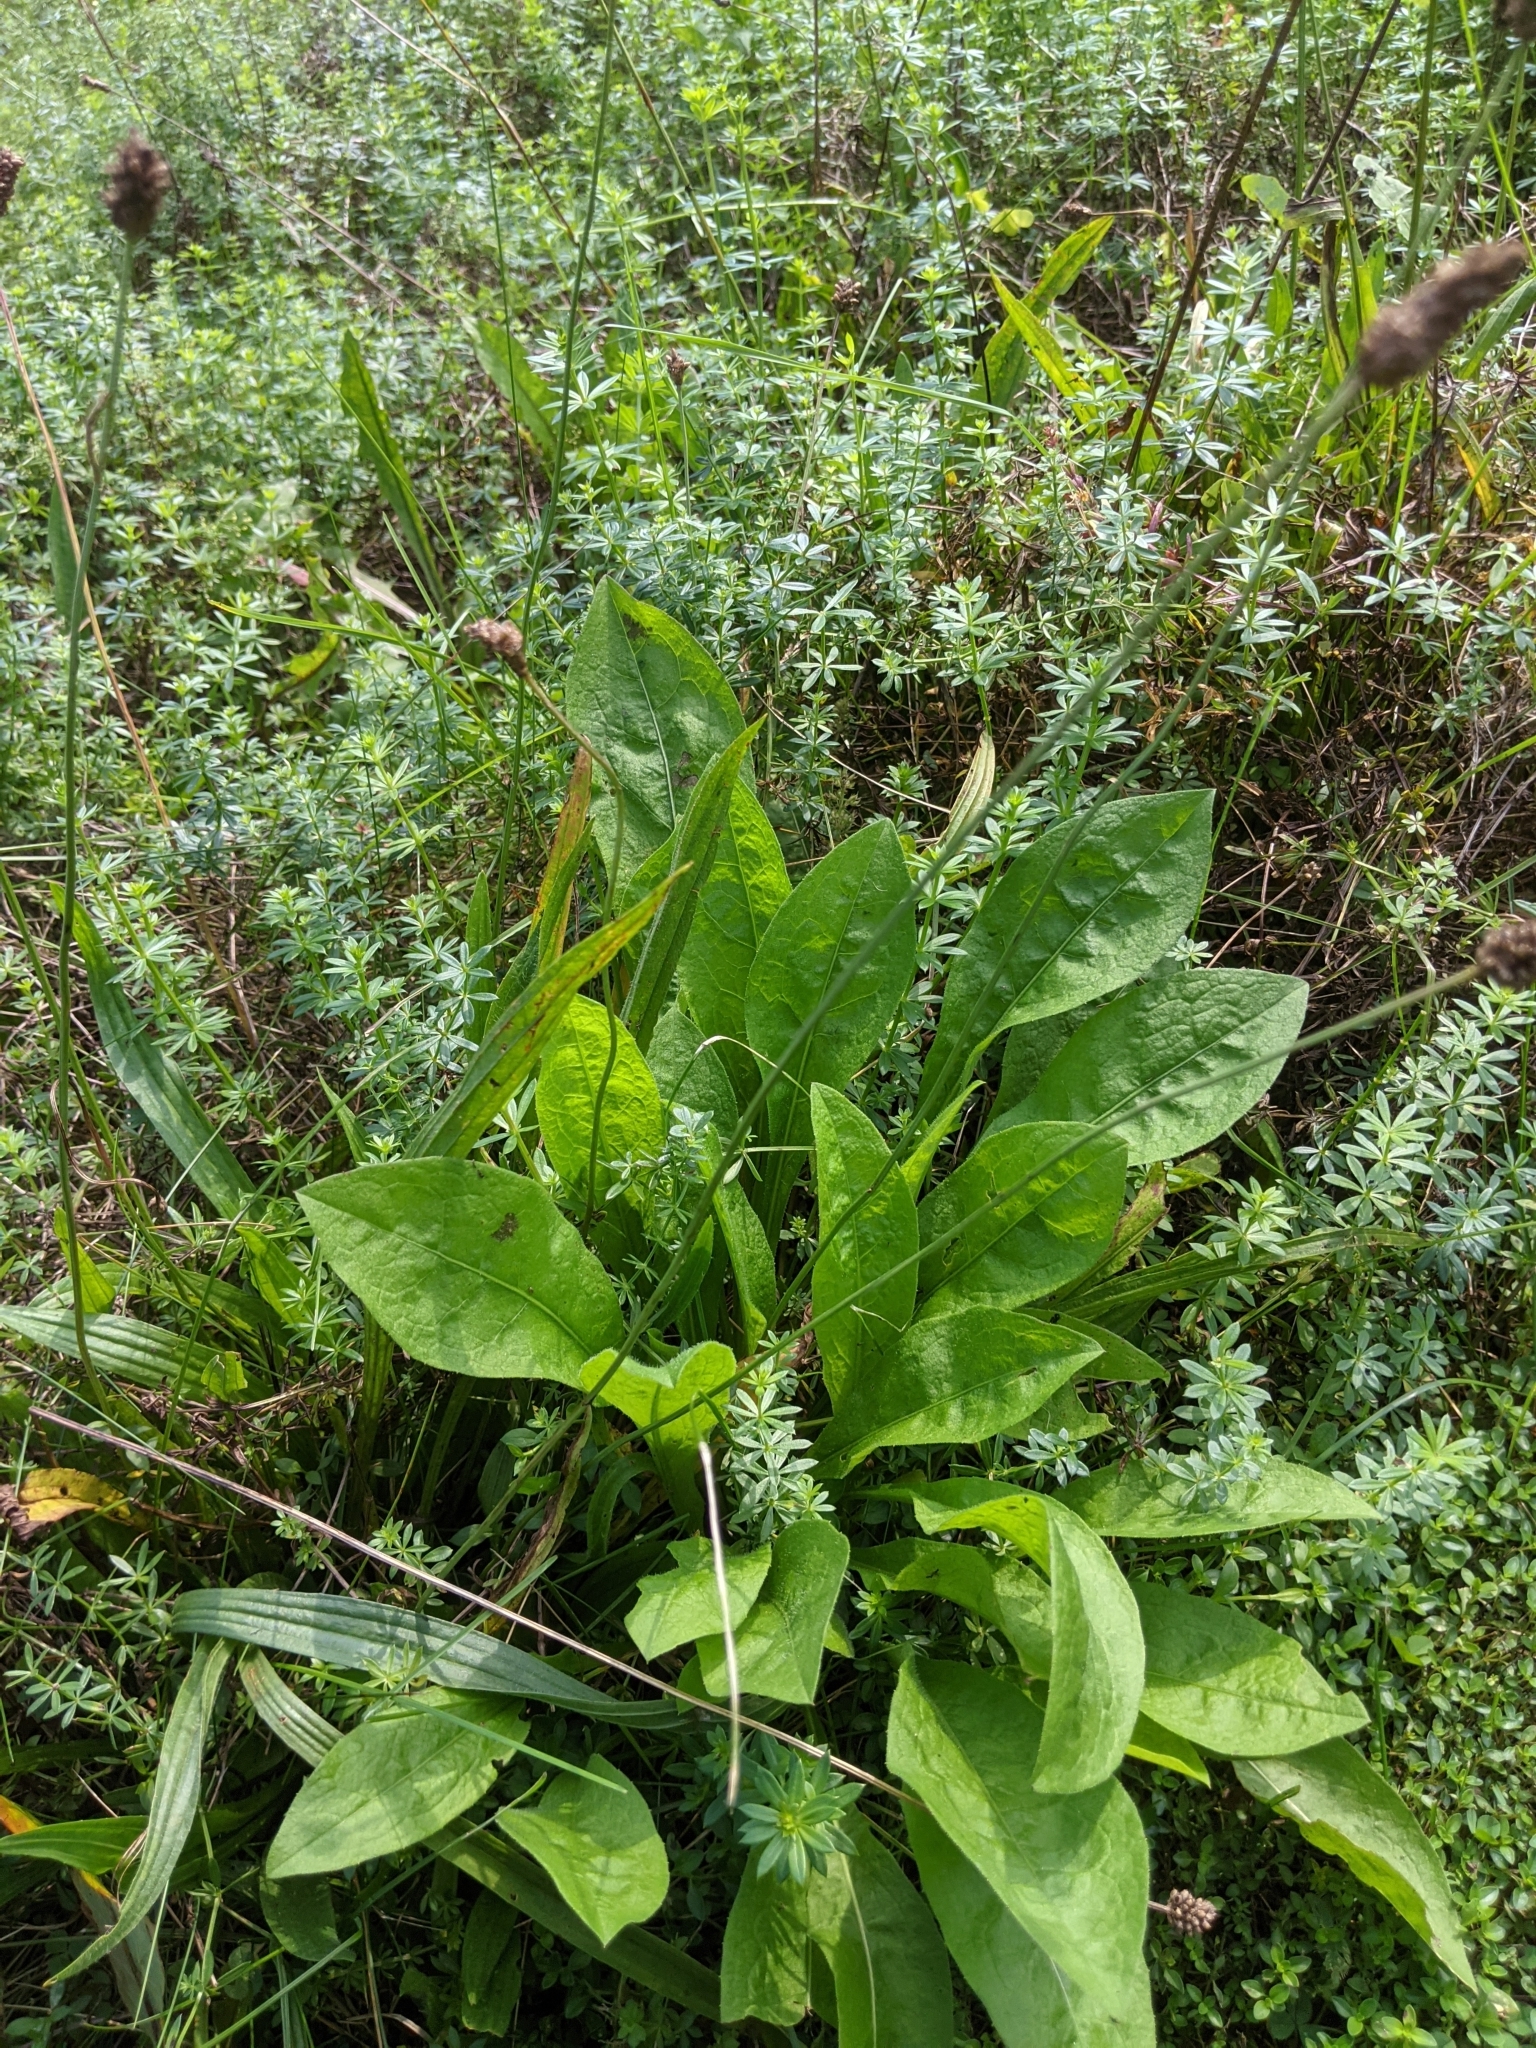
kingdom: Plantae
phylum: Tracheophyta
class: Magnoliopsida
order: Lamiales
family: Plantaginaceae
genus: Plantago
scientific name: Plantago lanceolata
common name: Ribwort plantain
